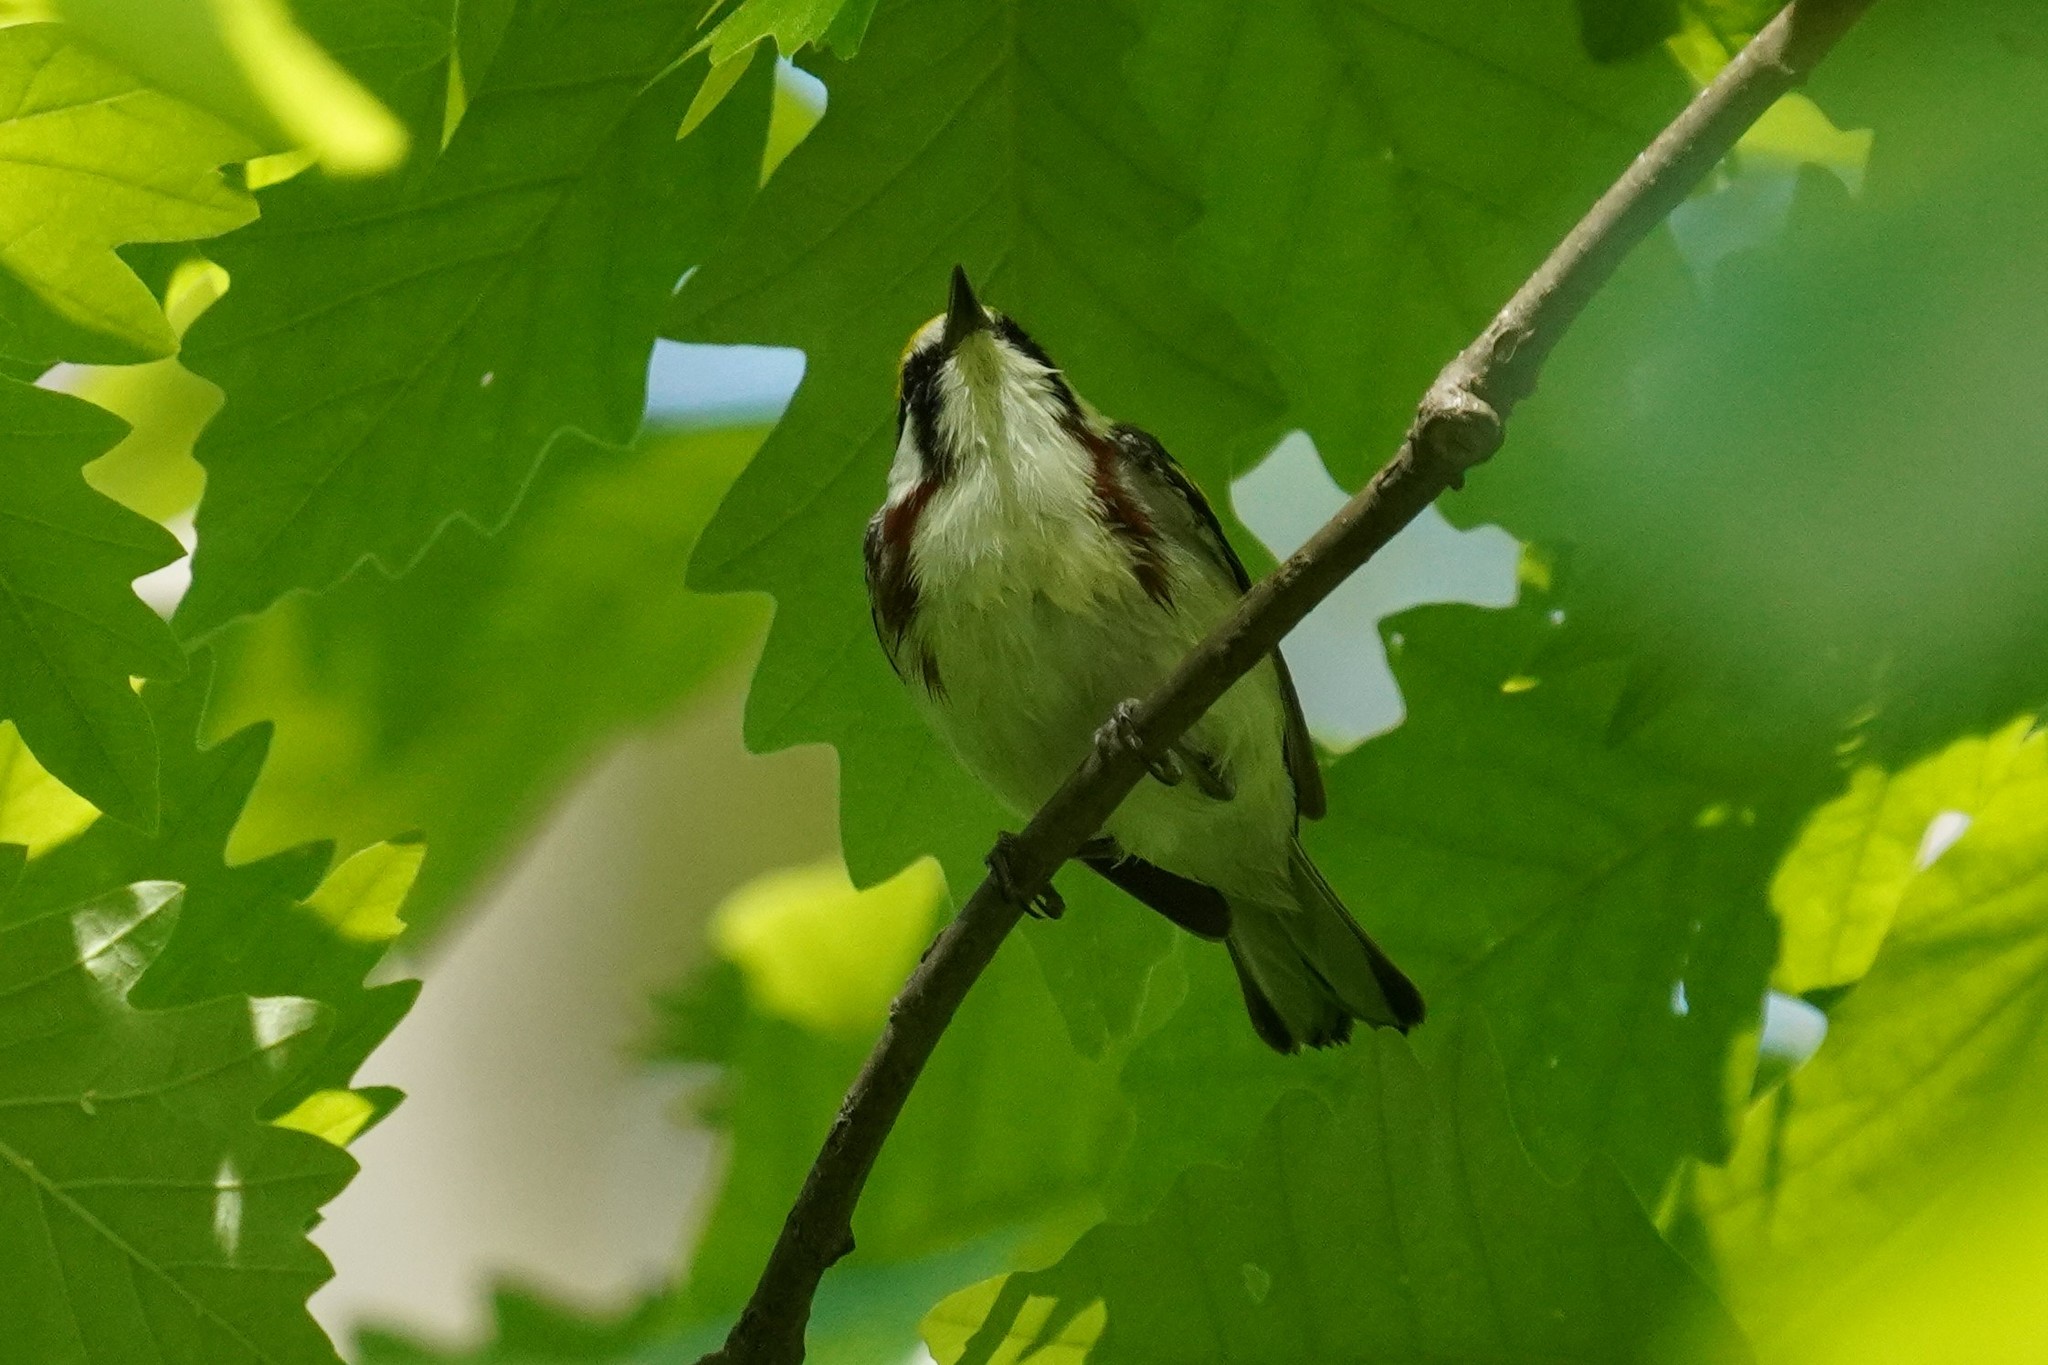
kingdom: Animalia
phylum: Chordata
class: Aves
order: Passeriformes
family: Parulidae
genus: Setophaga
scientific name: Setophaga pensylvanica
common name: Chestnut-sided warbler
